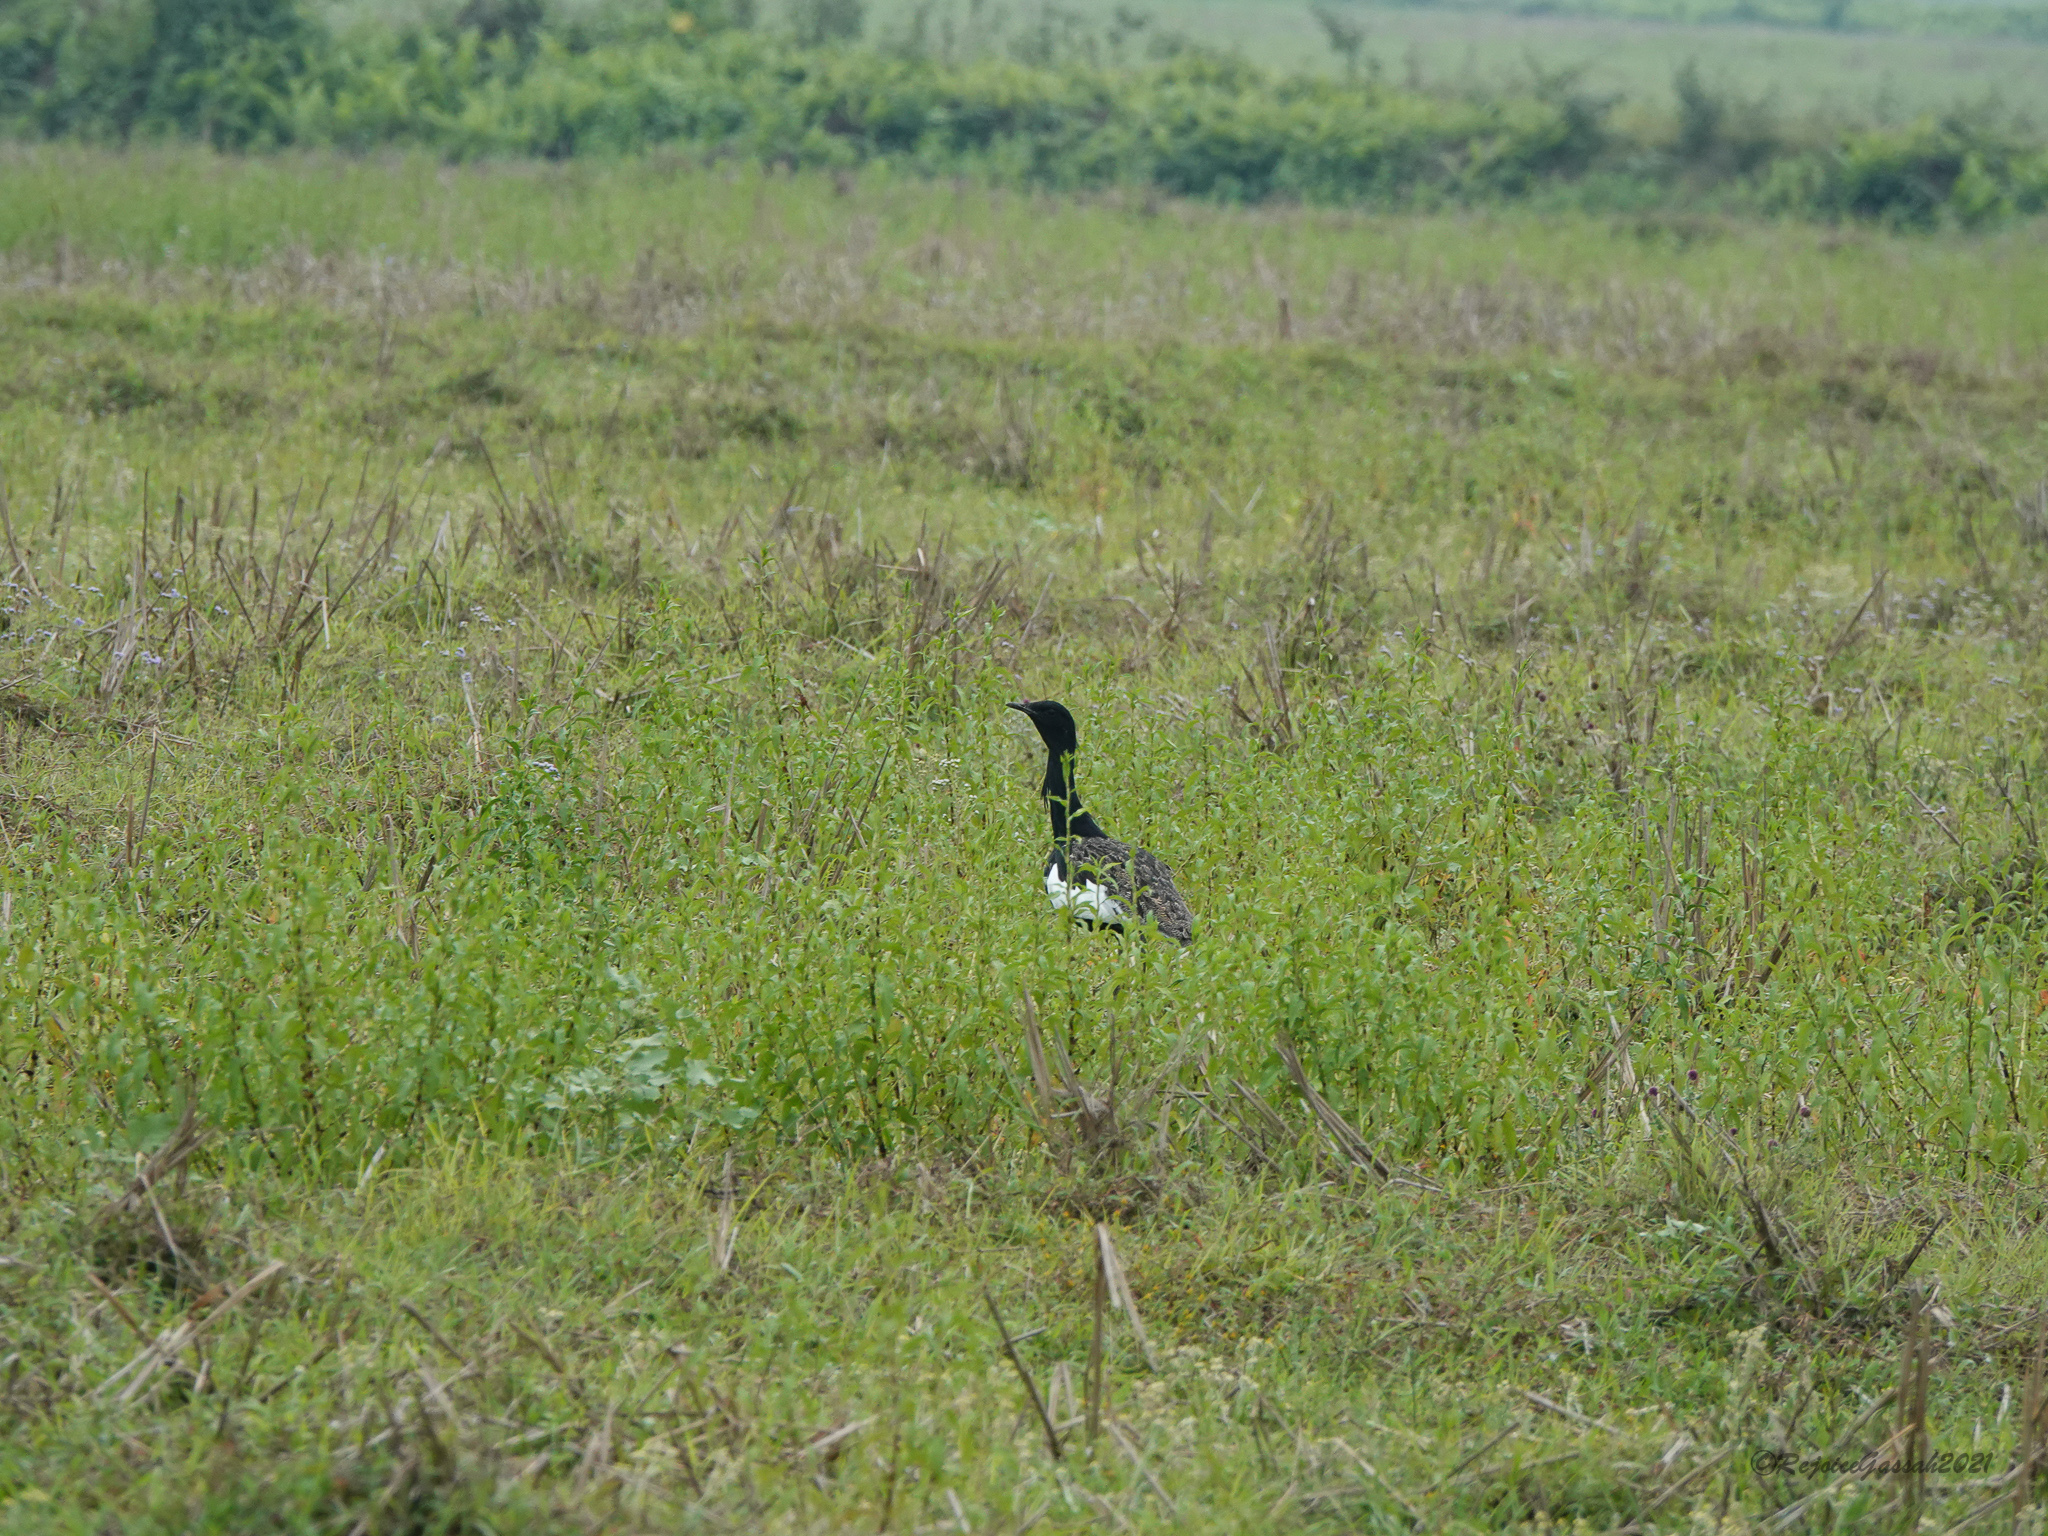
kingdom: Animalia
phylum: Chordata
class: Aves
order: Otidiformes
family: Otididae
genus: Houbaropsis
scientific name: Houbaropsis bengalensis
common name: Bengal florican
